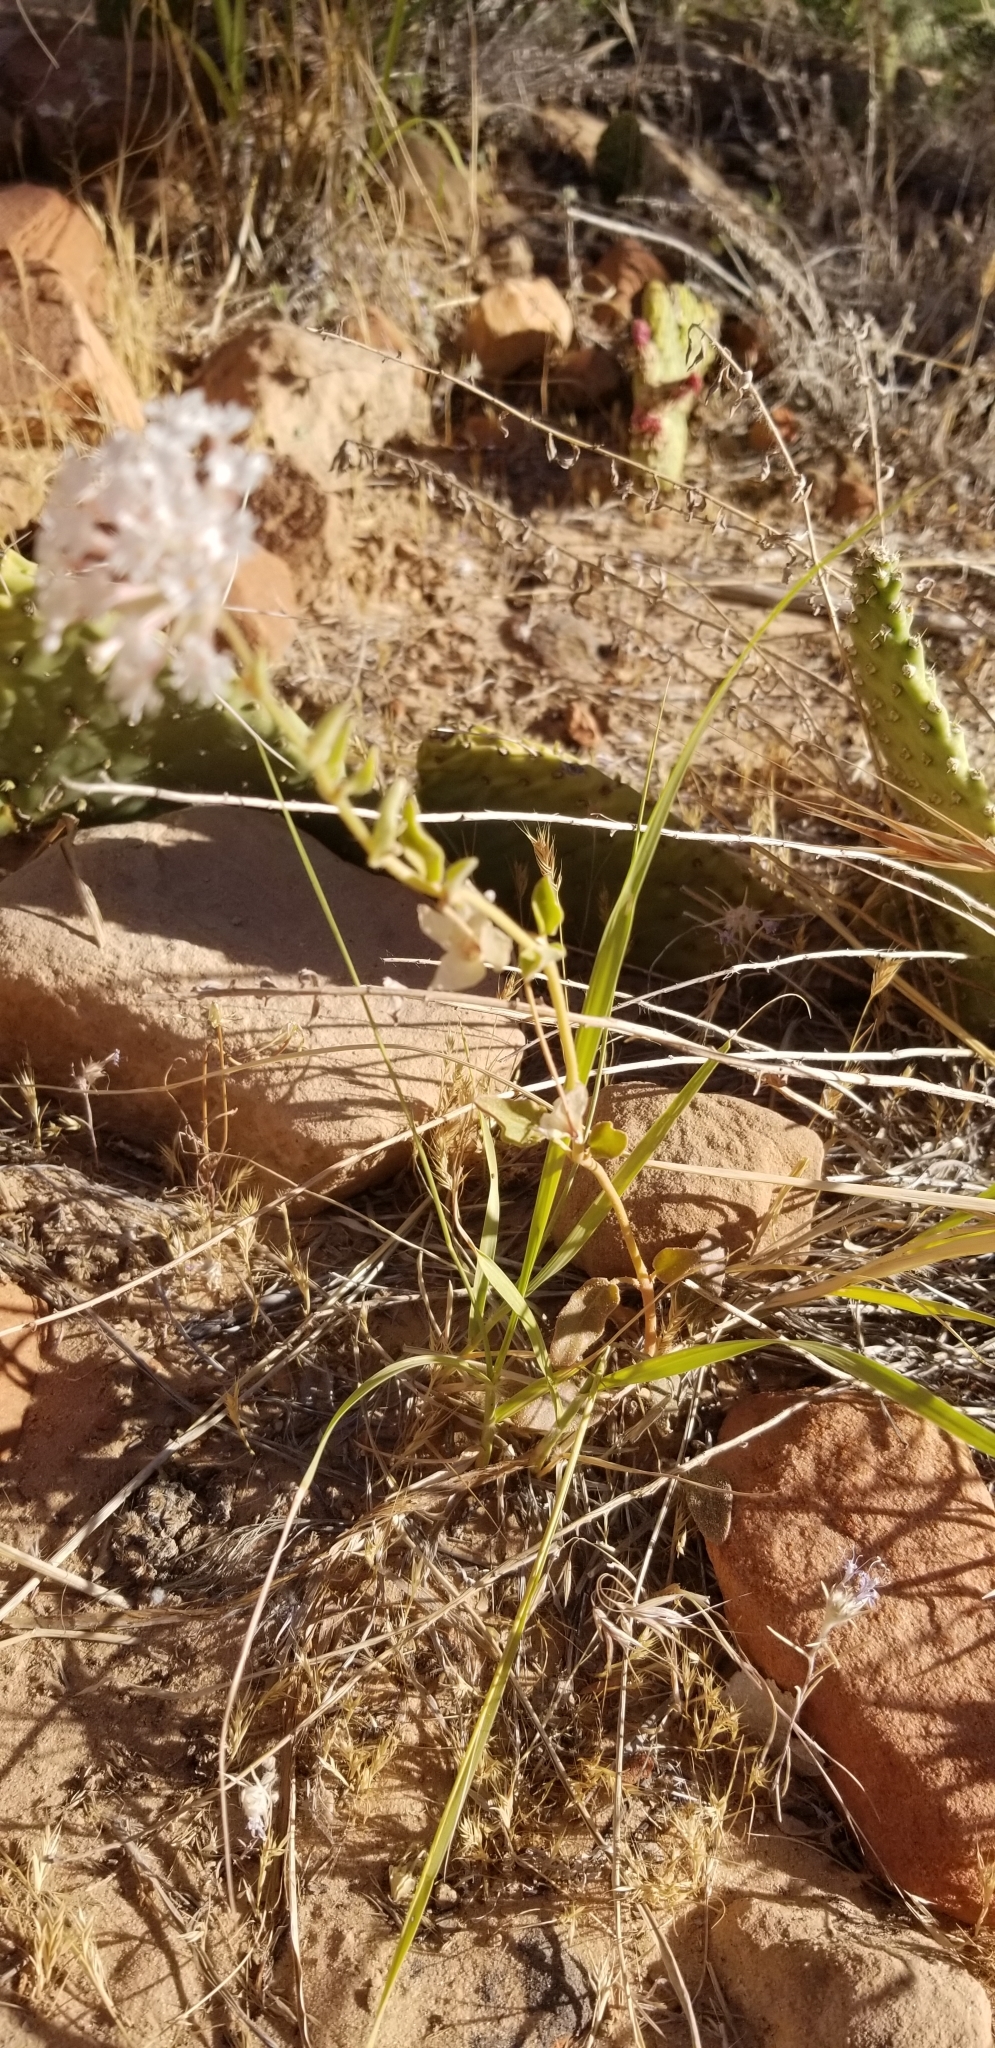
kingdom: Plantae
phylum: Tracheophyta
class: Magnoliopsida
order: Caryophyllales
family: Nyctaginaceae
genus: Abronia
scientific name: Abronia elliptica
